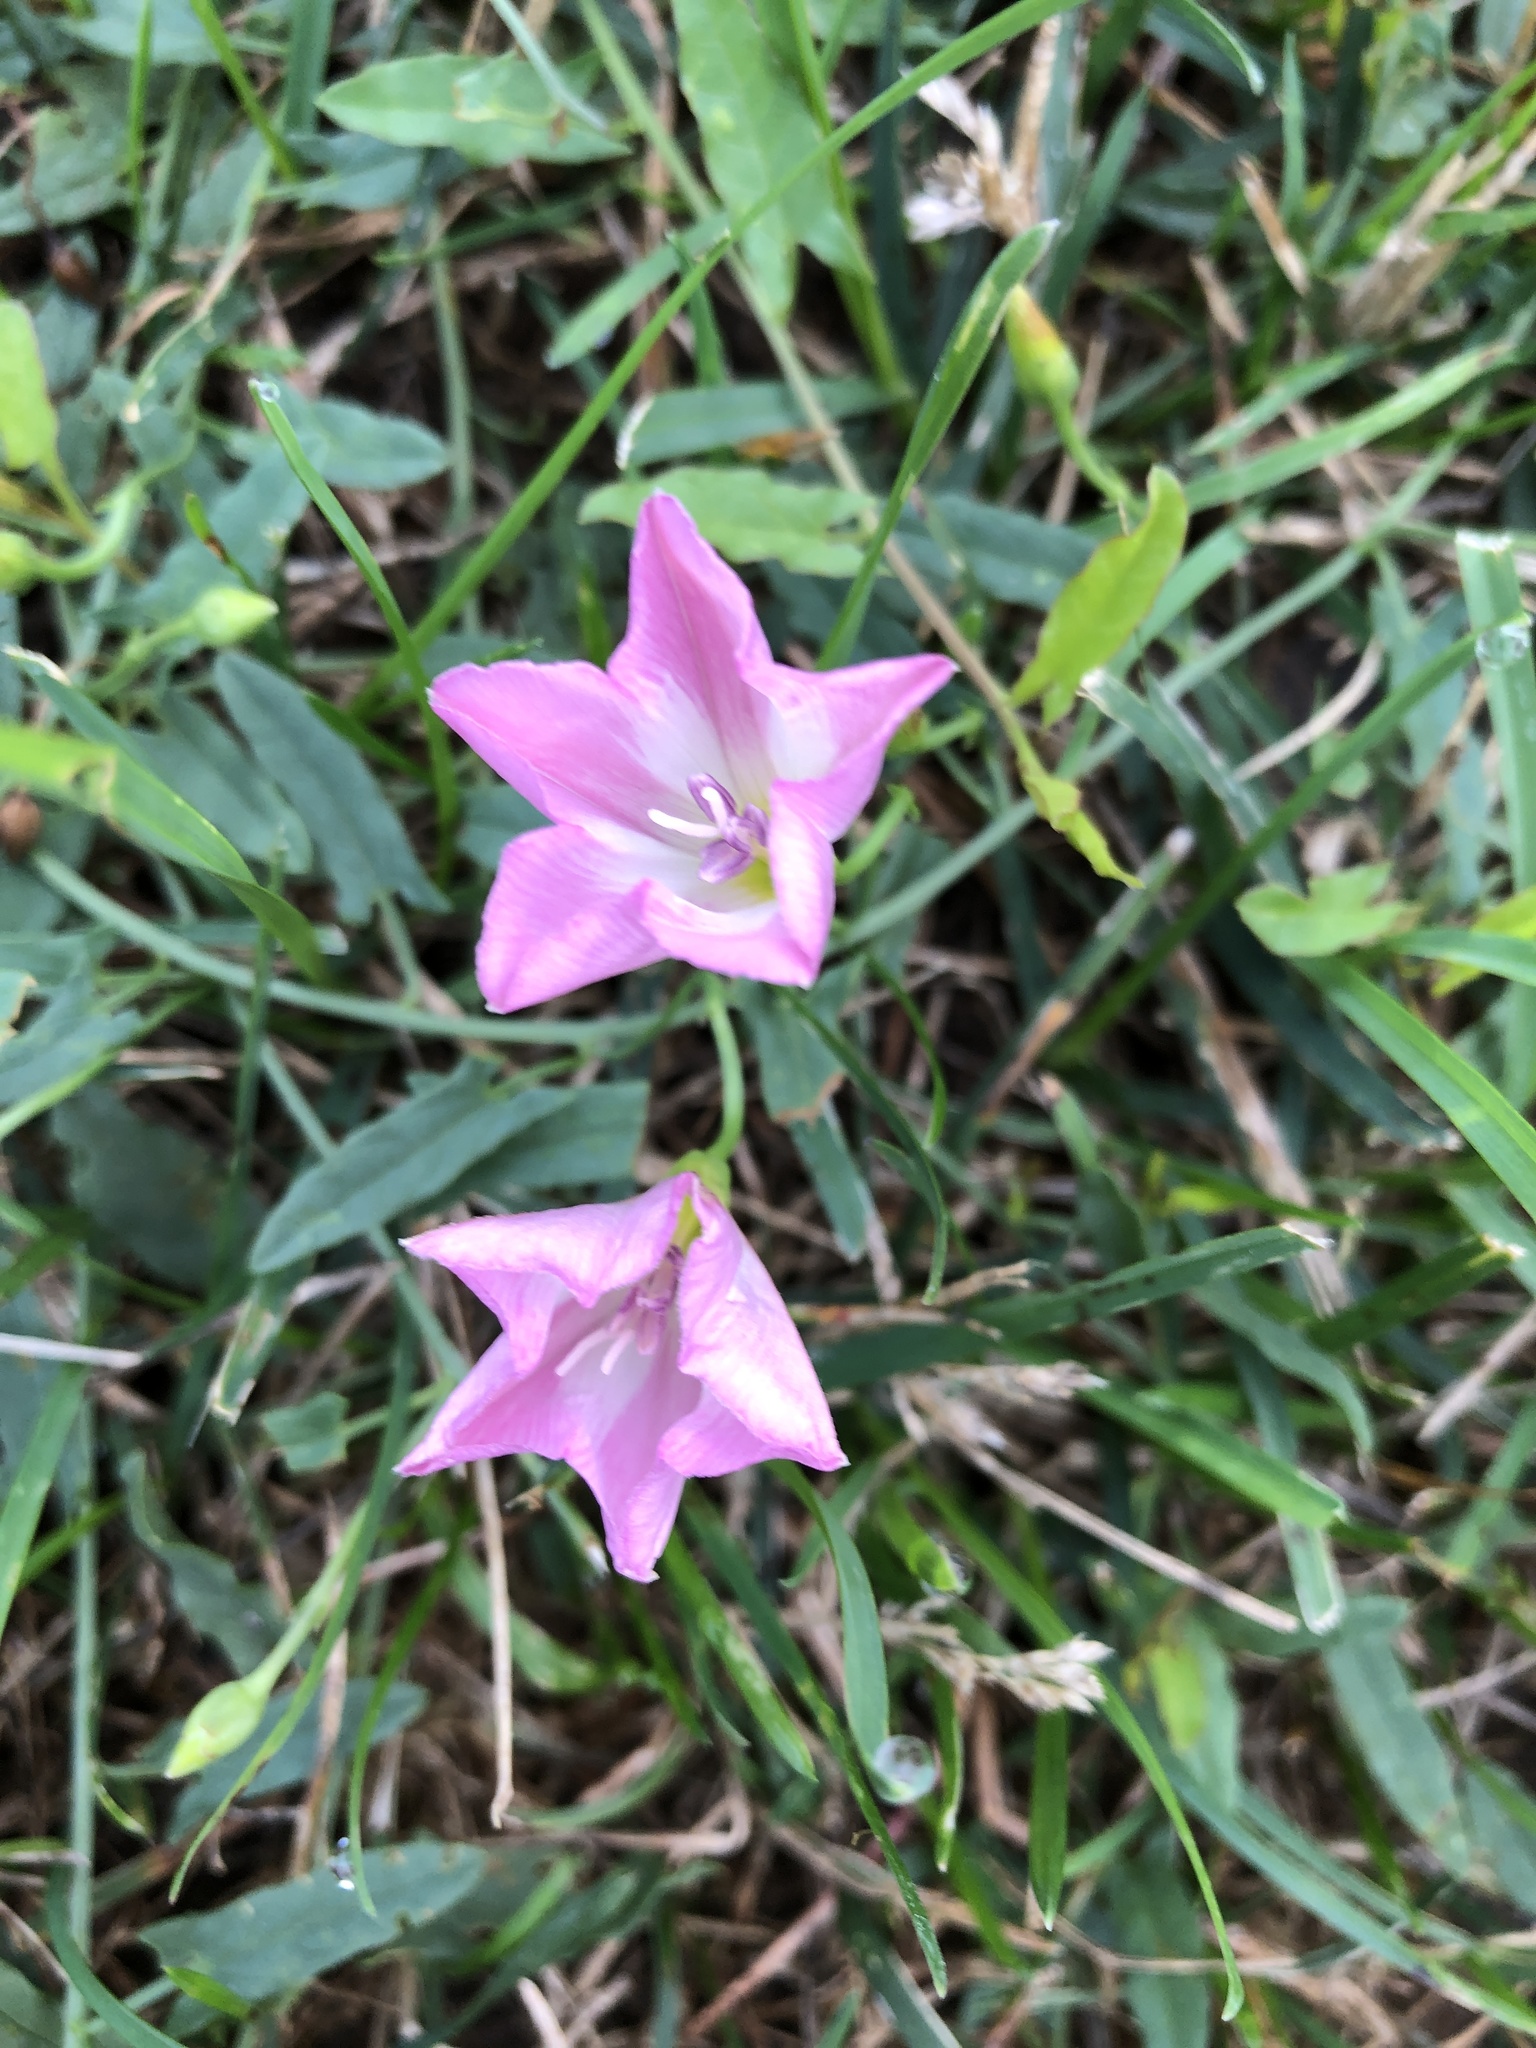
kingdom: Plantae
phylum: Tracheophyta
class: Magnoliopsida
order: Solanales
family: Convolvulaceae
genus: Convolvulus
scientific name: Convolvulus arvensis
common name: Field bindweed
